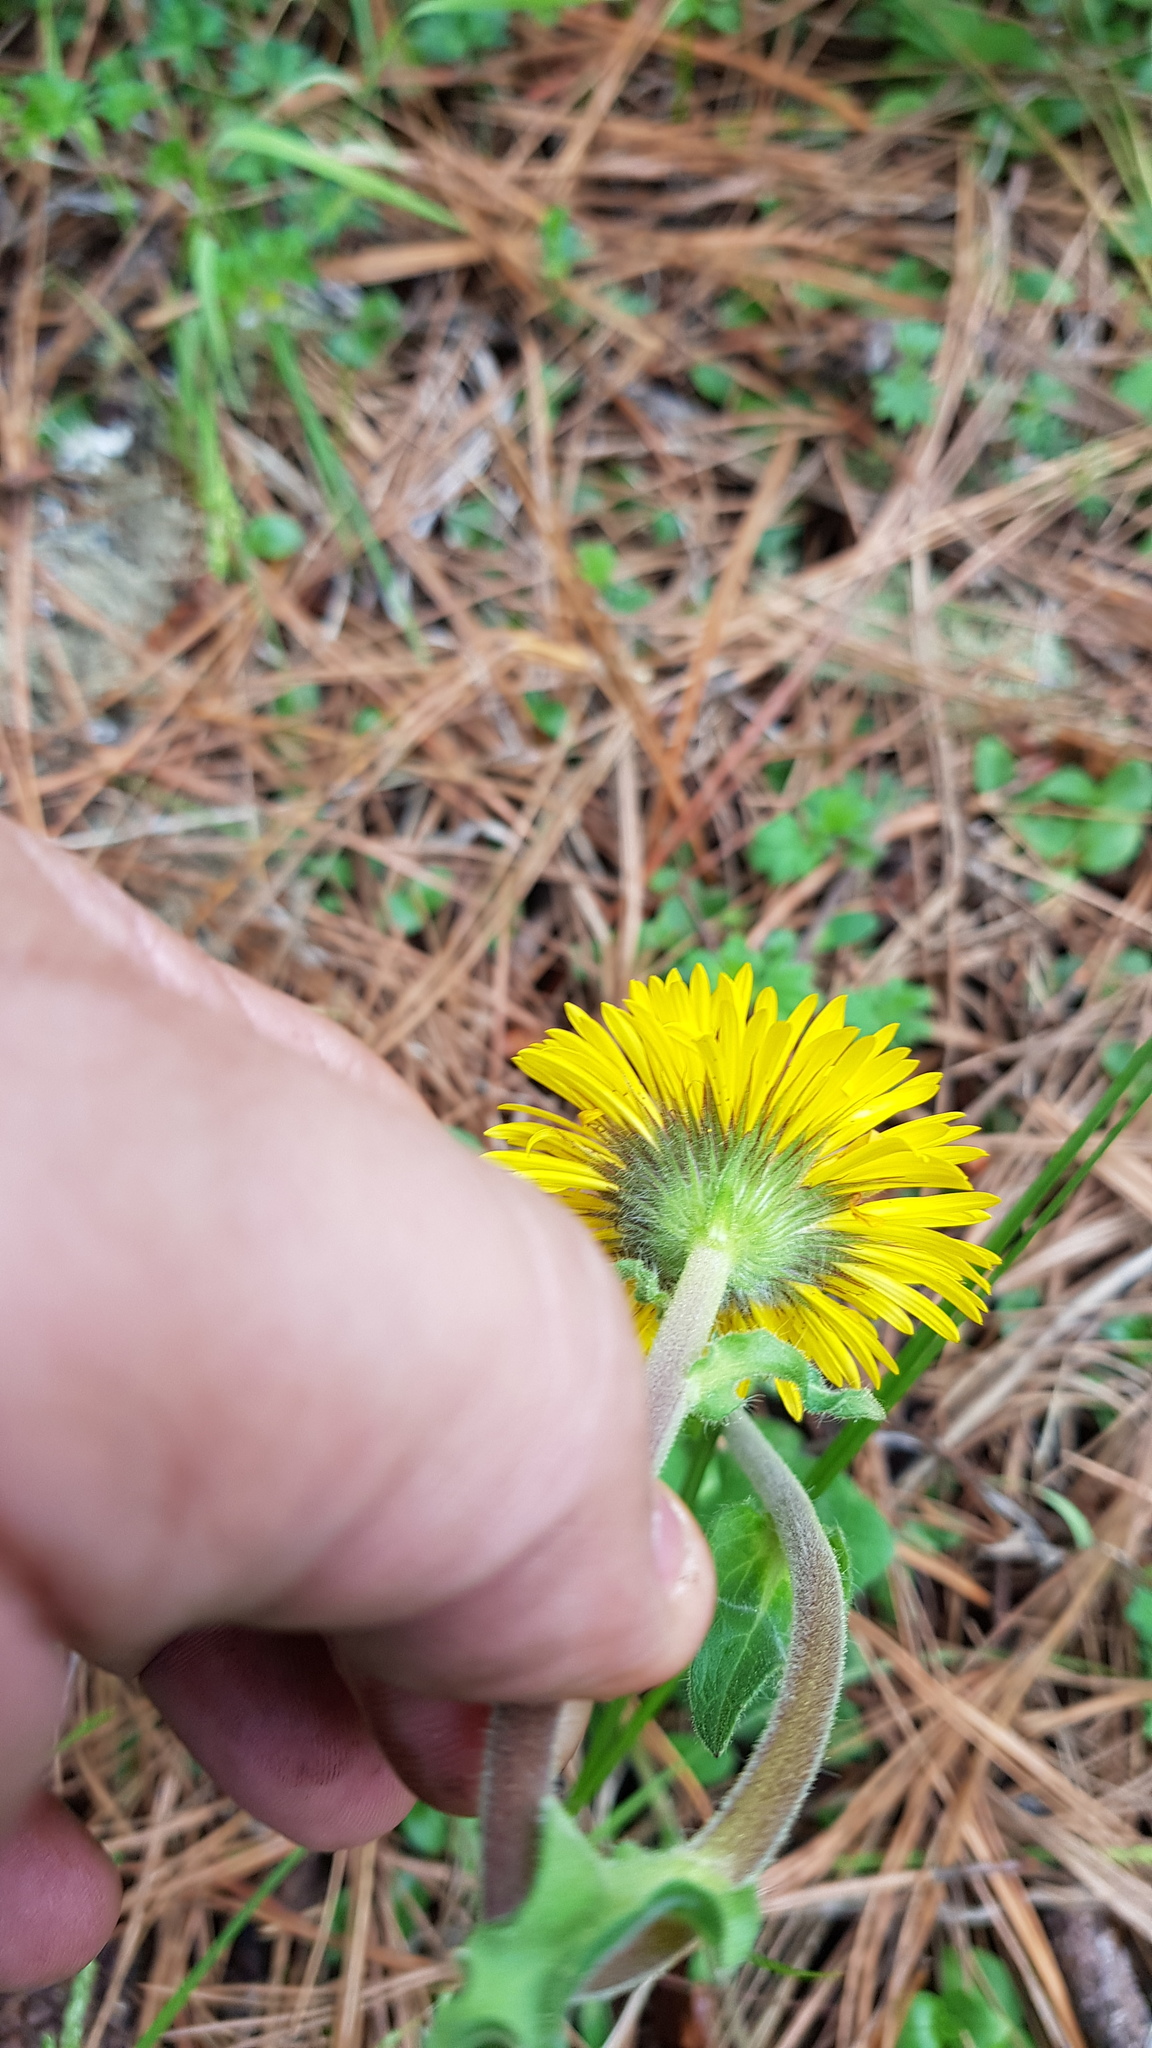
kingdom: Plantae
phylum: Tracheophyta
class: Magnoliopsida
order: Asterales
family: Asteraceae
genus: Osbertia
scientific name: Osbertia stolonifera
